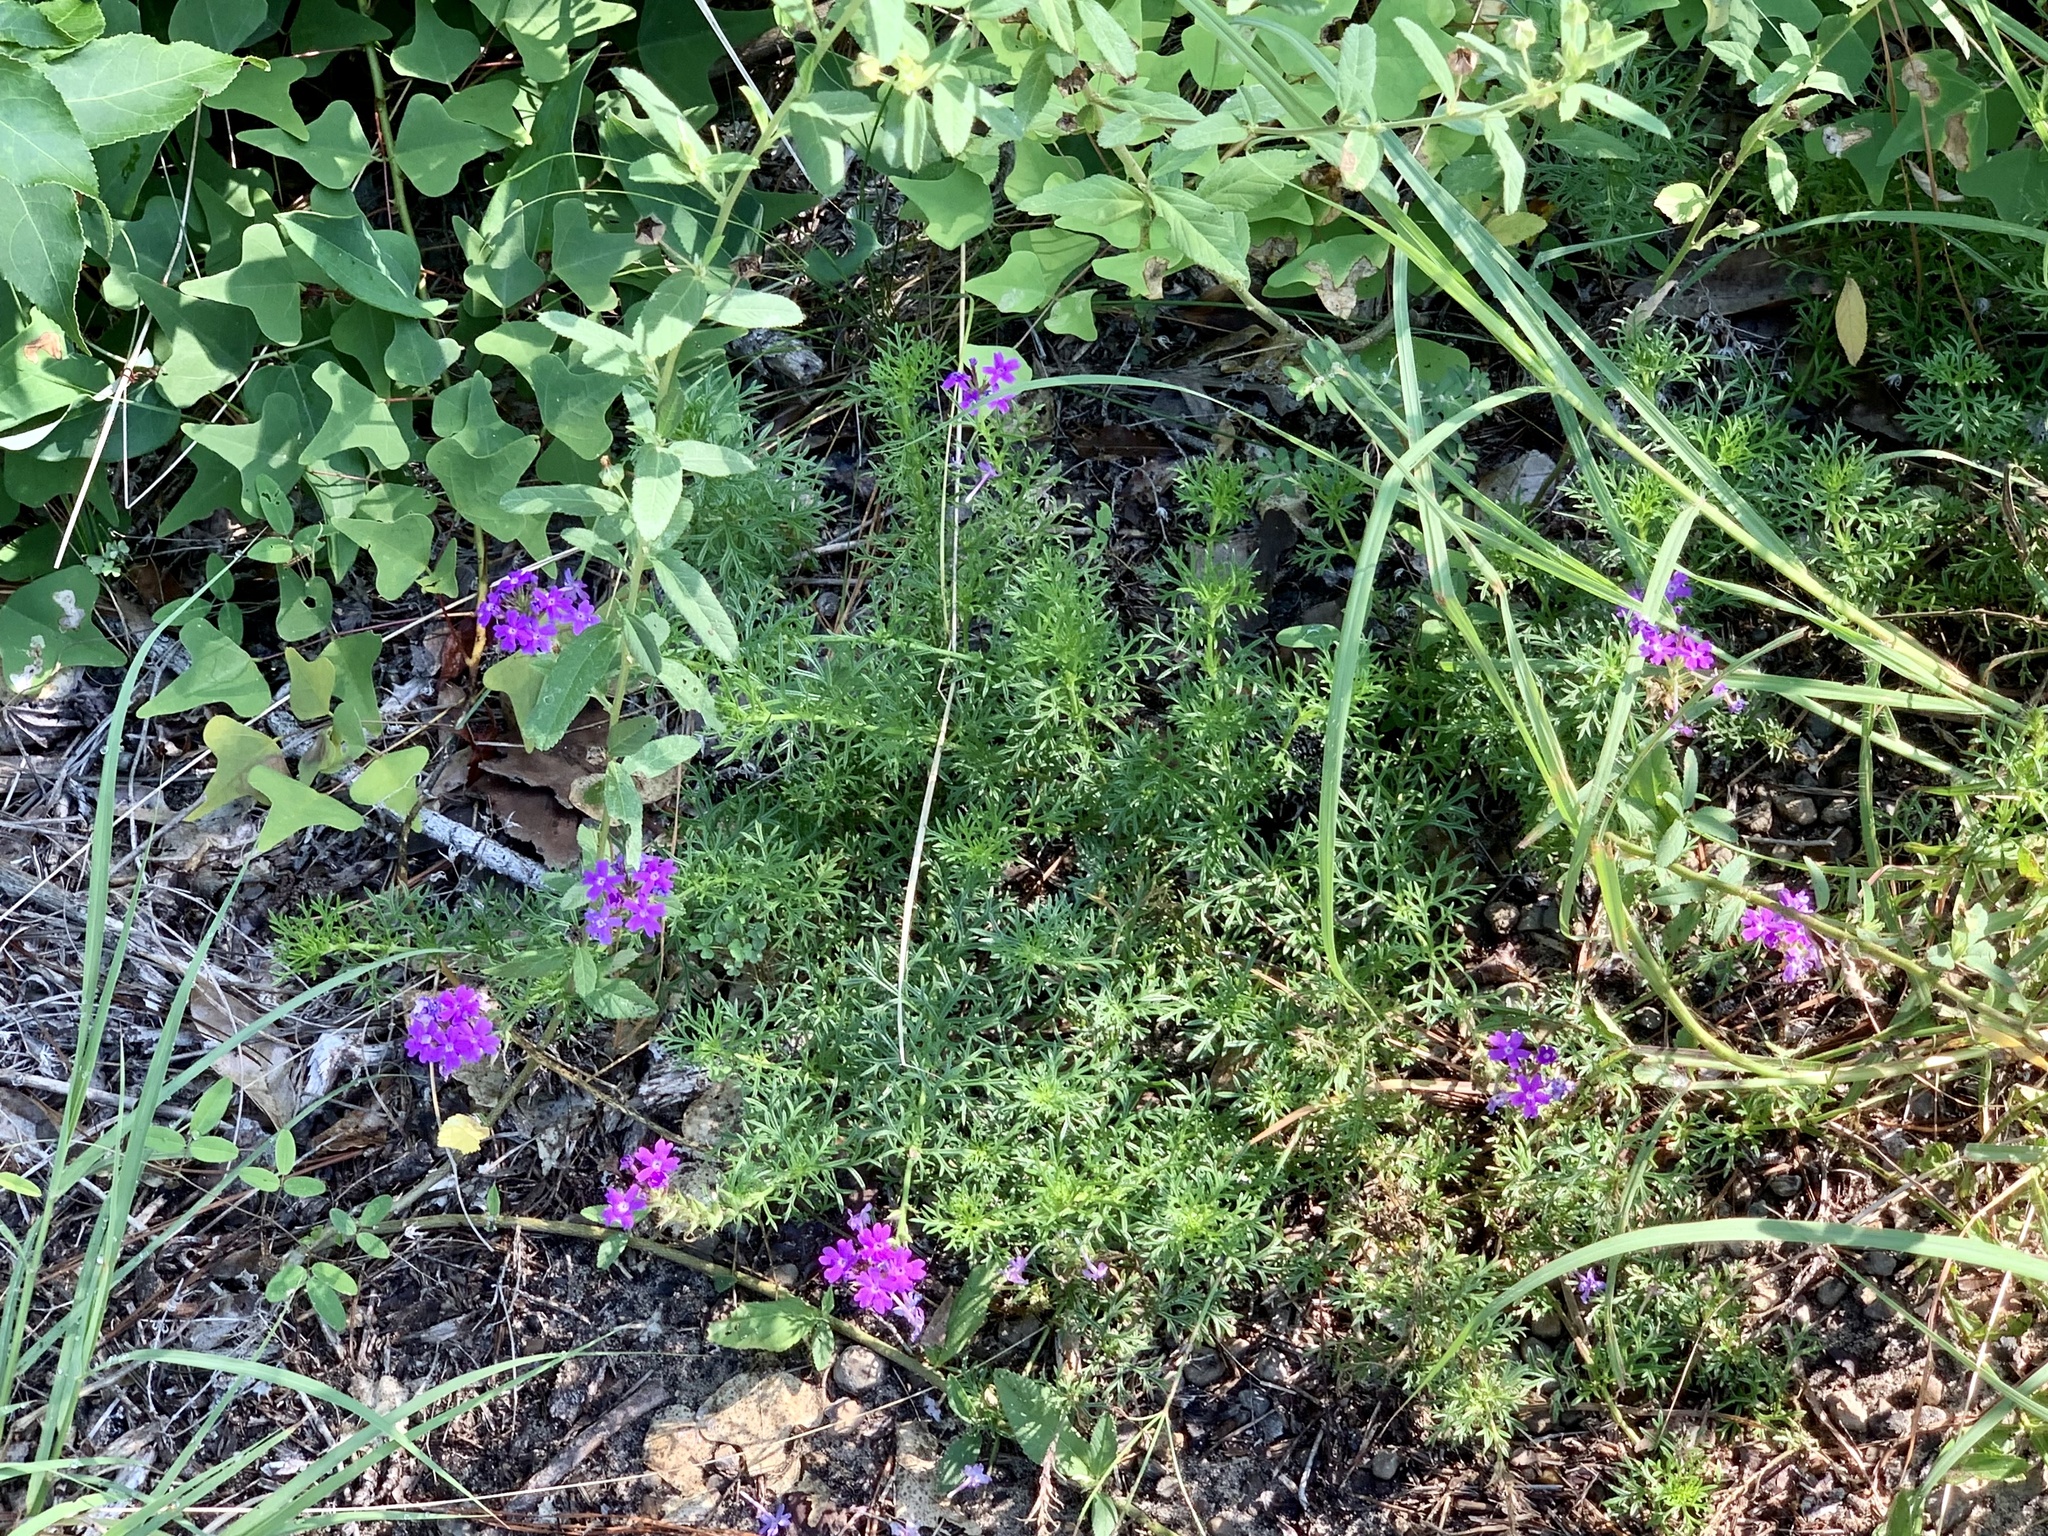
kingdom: Plantae
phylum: Tracheophyta
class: Magnoliopsida
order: Fabales
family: Fabaceae
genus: Centrosema
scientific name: Centrosema virginianum
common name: Butterfly-pea
